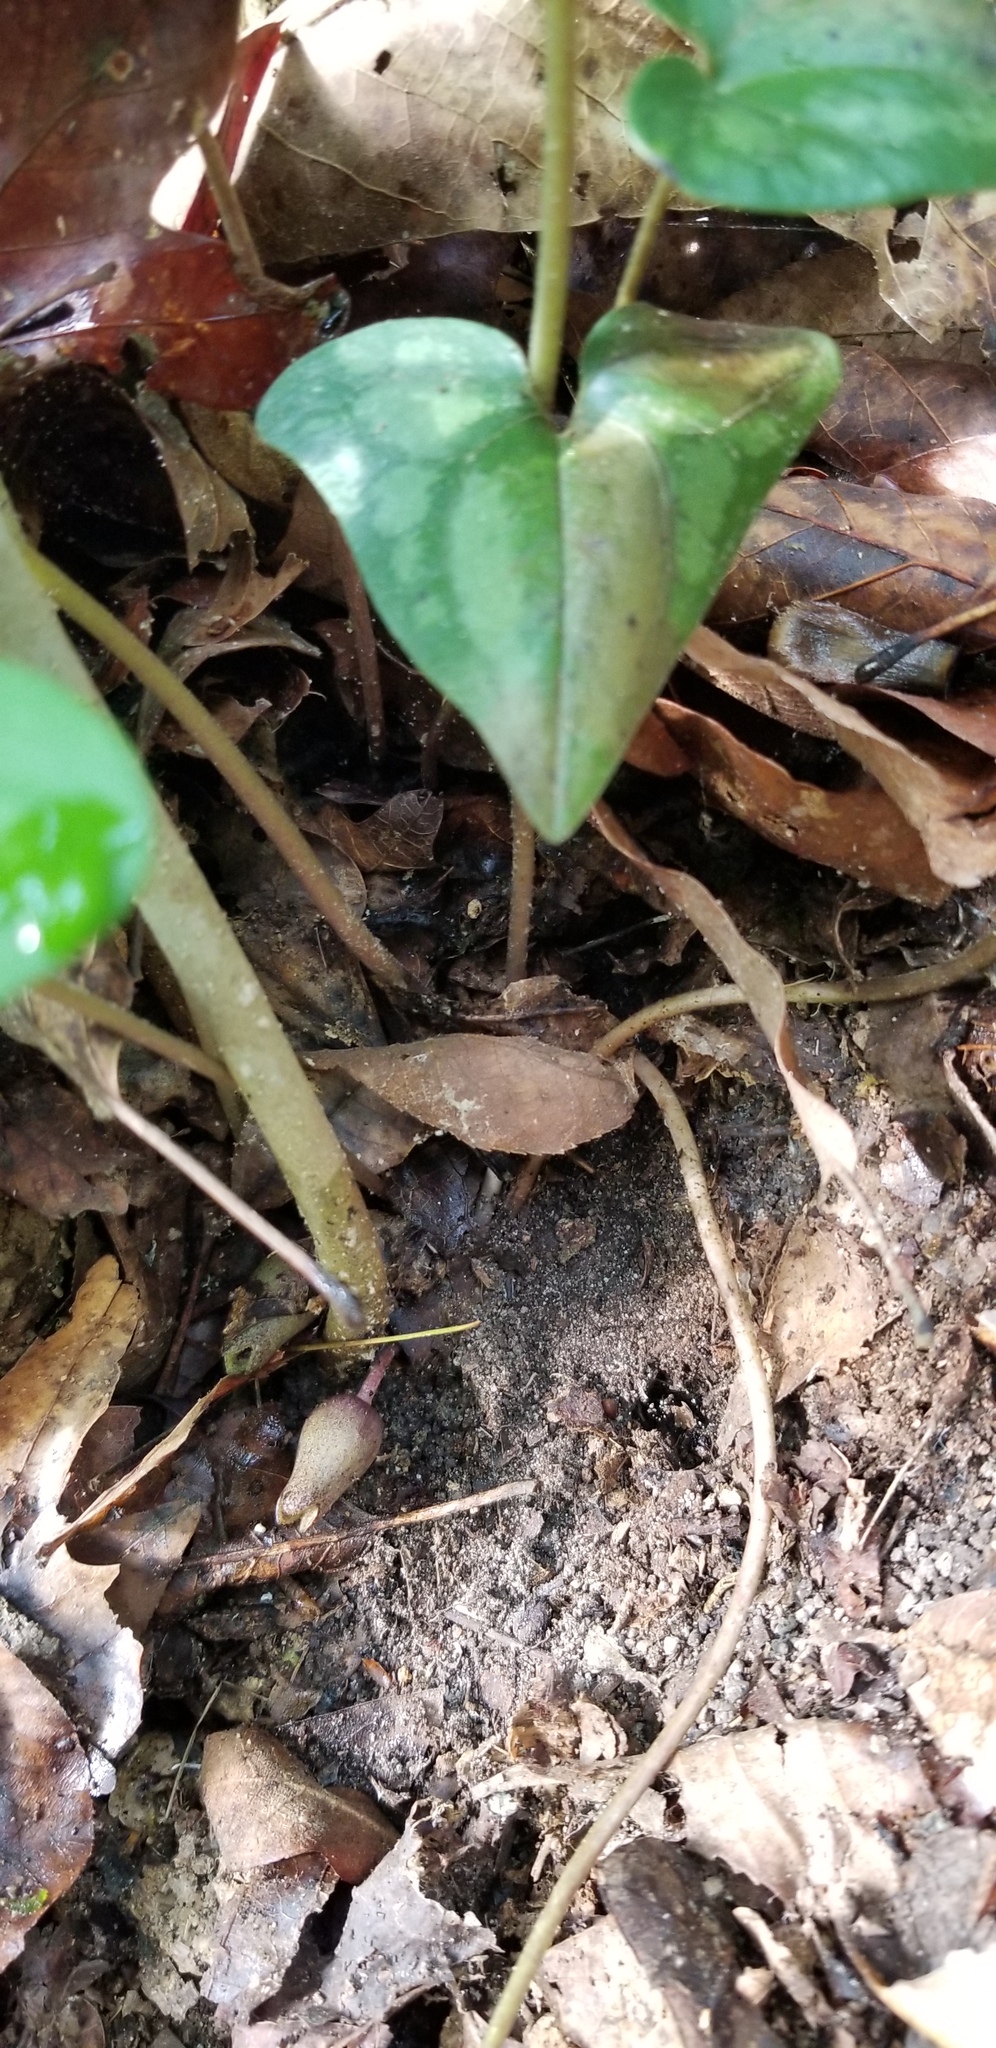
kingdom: Plantae
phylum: Tracheophyta
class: Magnoliopsida
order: Piperales
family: Aristolochiaceae
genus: Hexastylis
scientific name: Hexastylis arifolia
